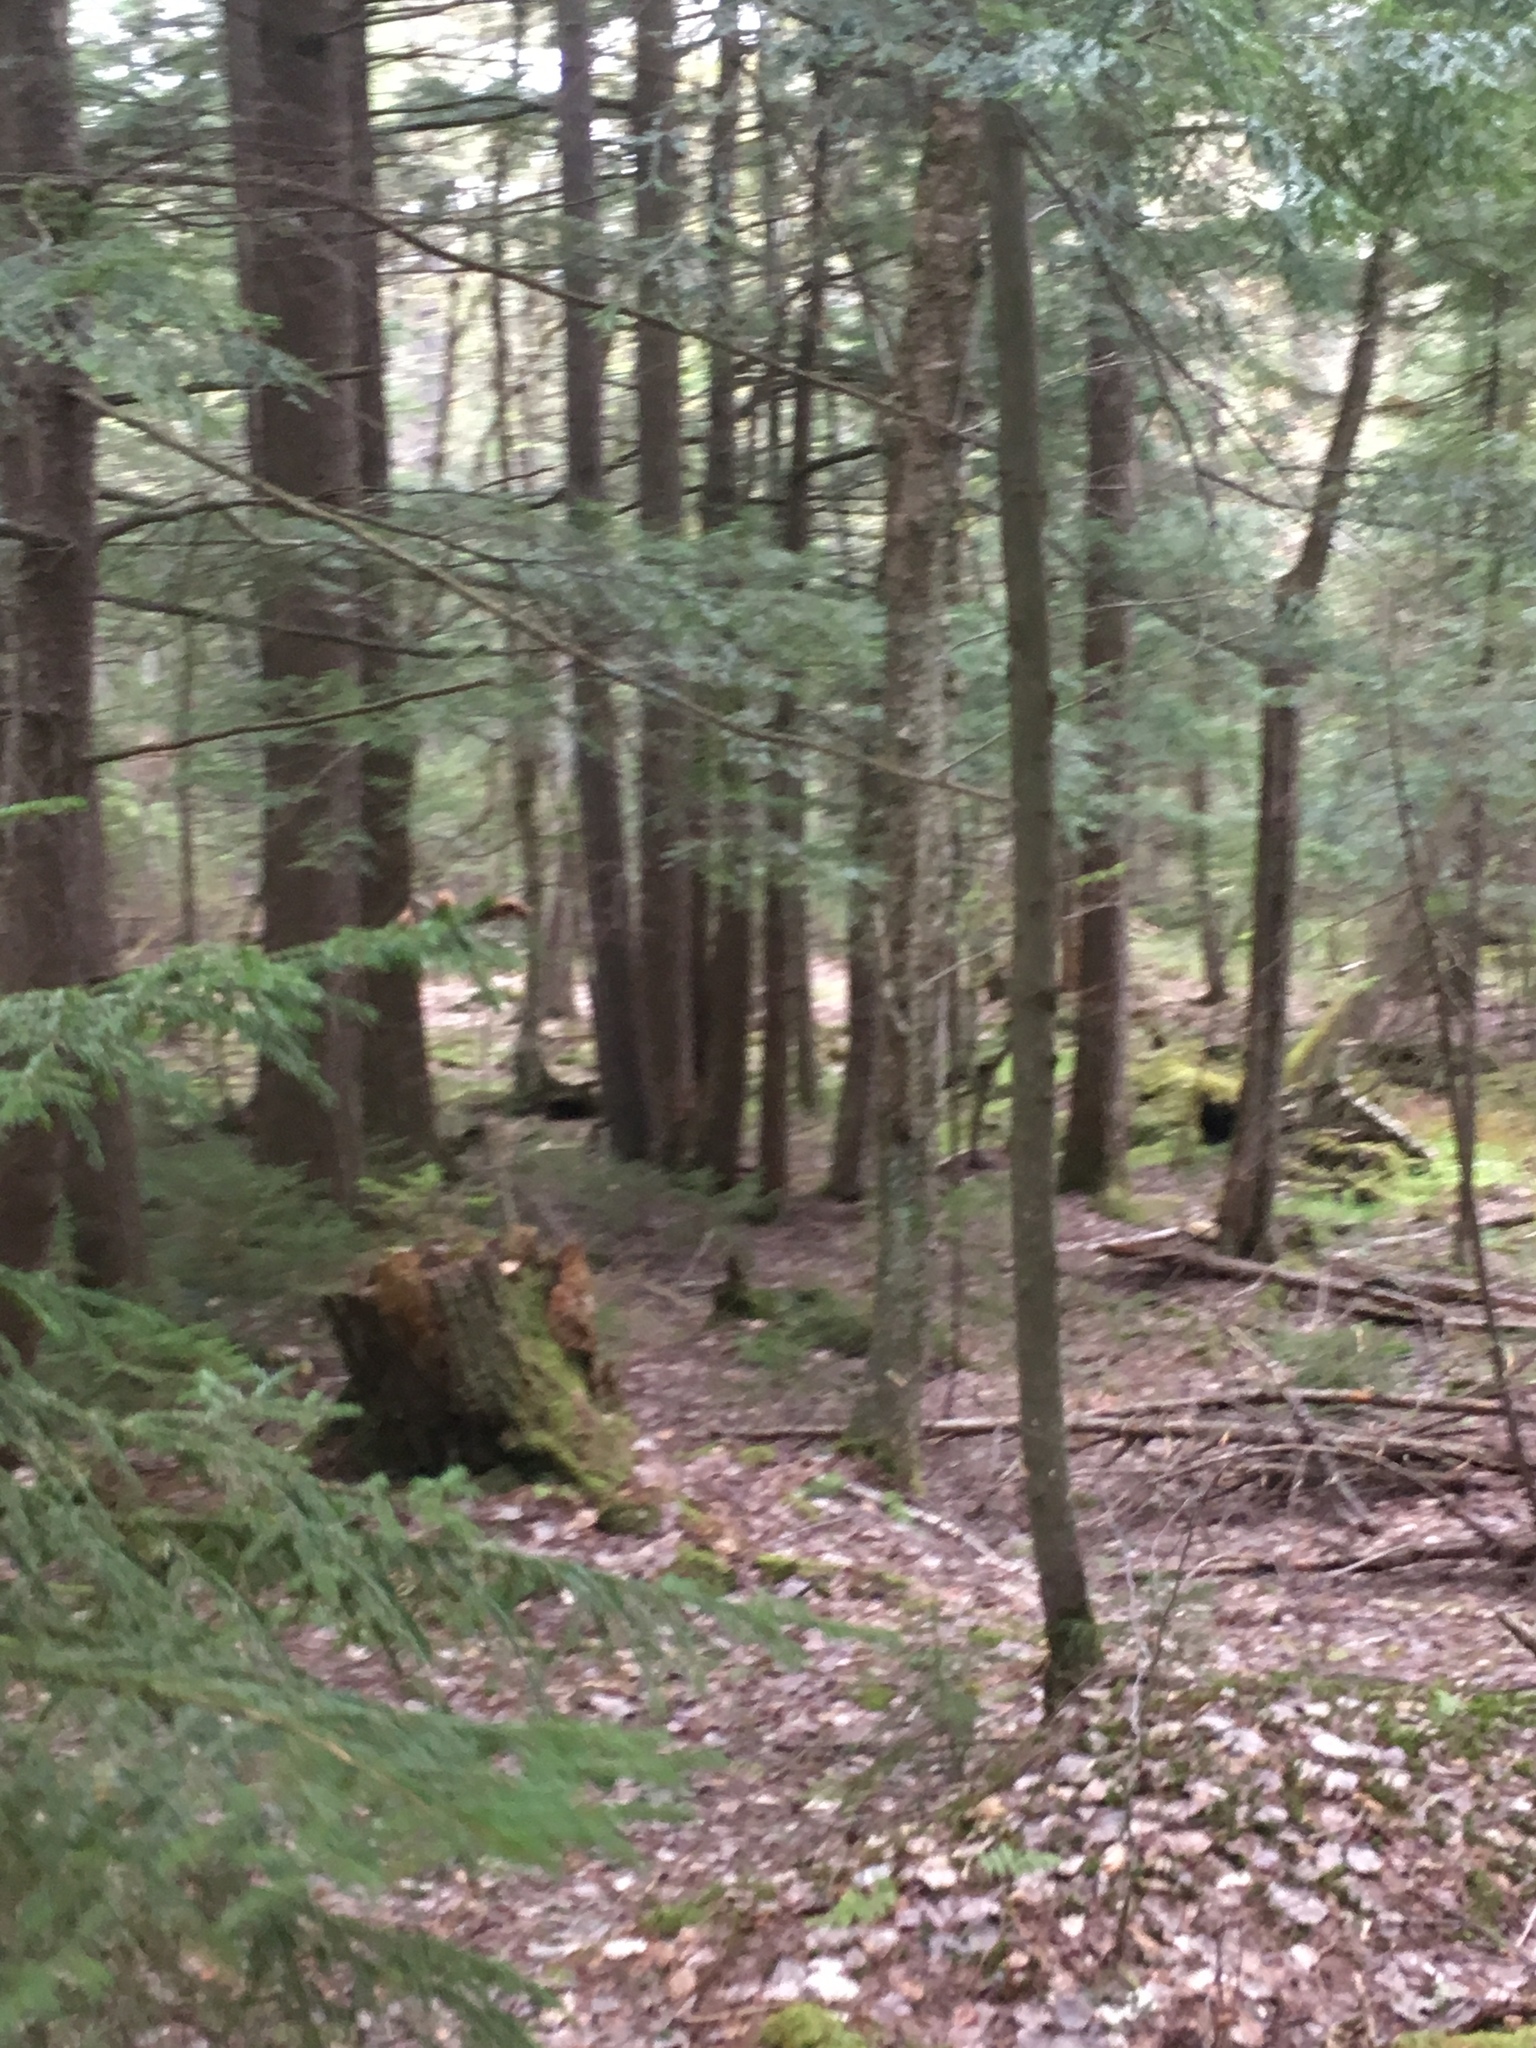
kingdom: Plantae
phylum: Tracheophyta
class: Pinopsida
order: Pinales
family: Pinaceae
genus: Tsuga
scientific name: Tsuga canadensis
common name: Eastern hemlock
